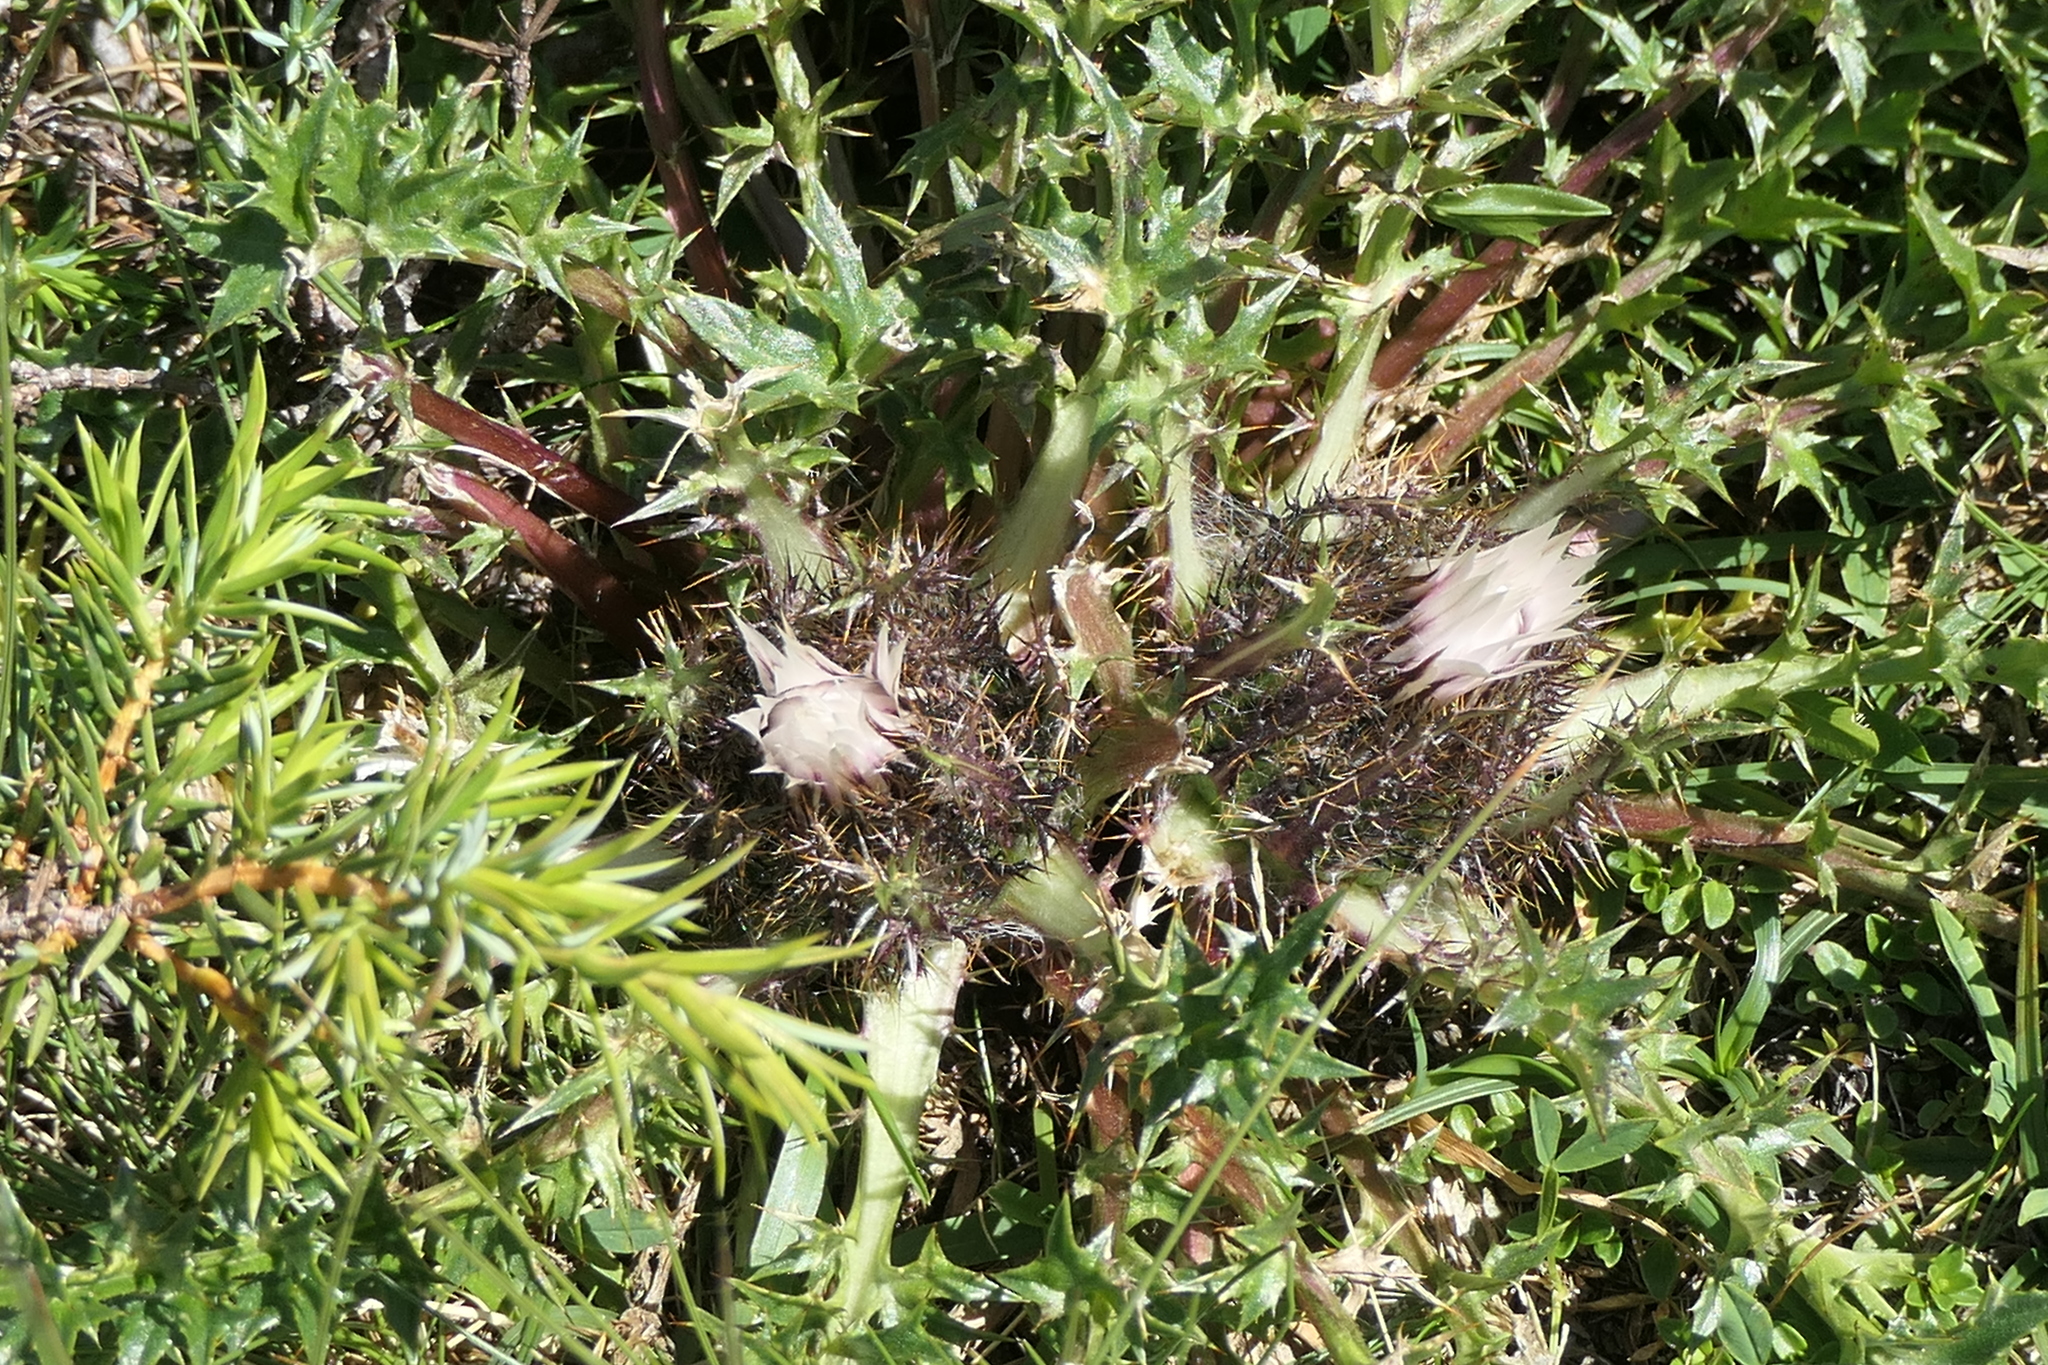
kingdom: Plantae
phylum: Tracheophyta
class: Magnoliopsida
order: Asterales
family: Asteraceae
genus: Carlina
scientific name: Carlina acaulis
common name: Stemless carline thistle
